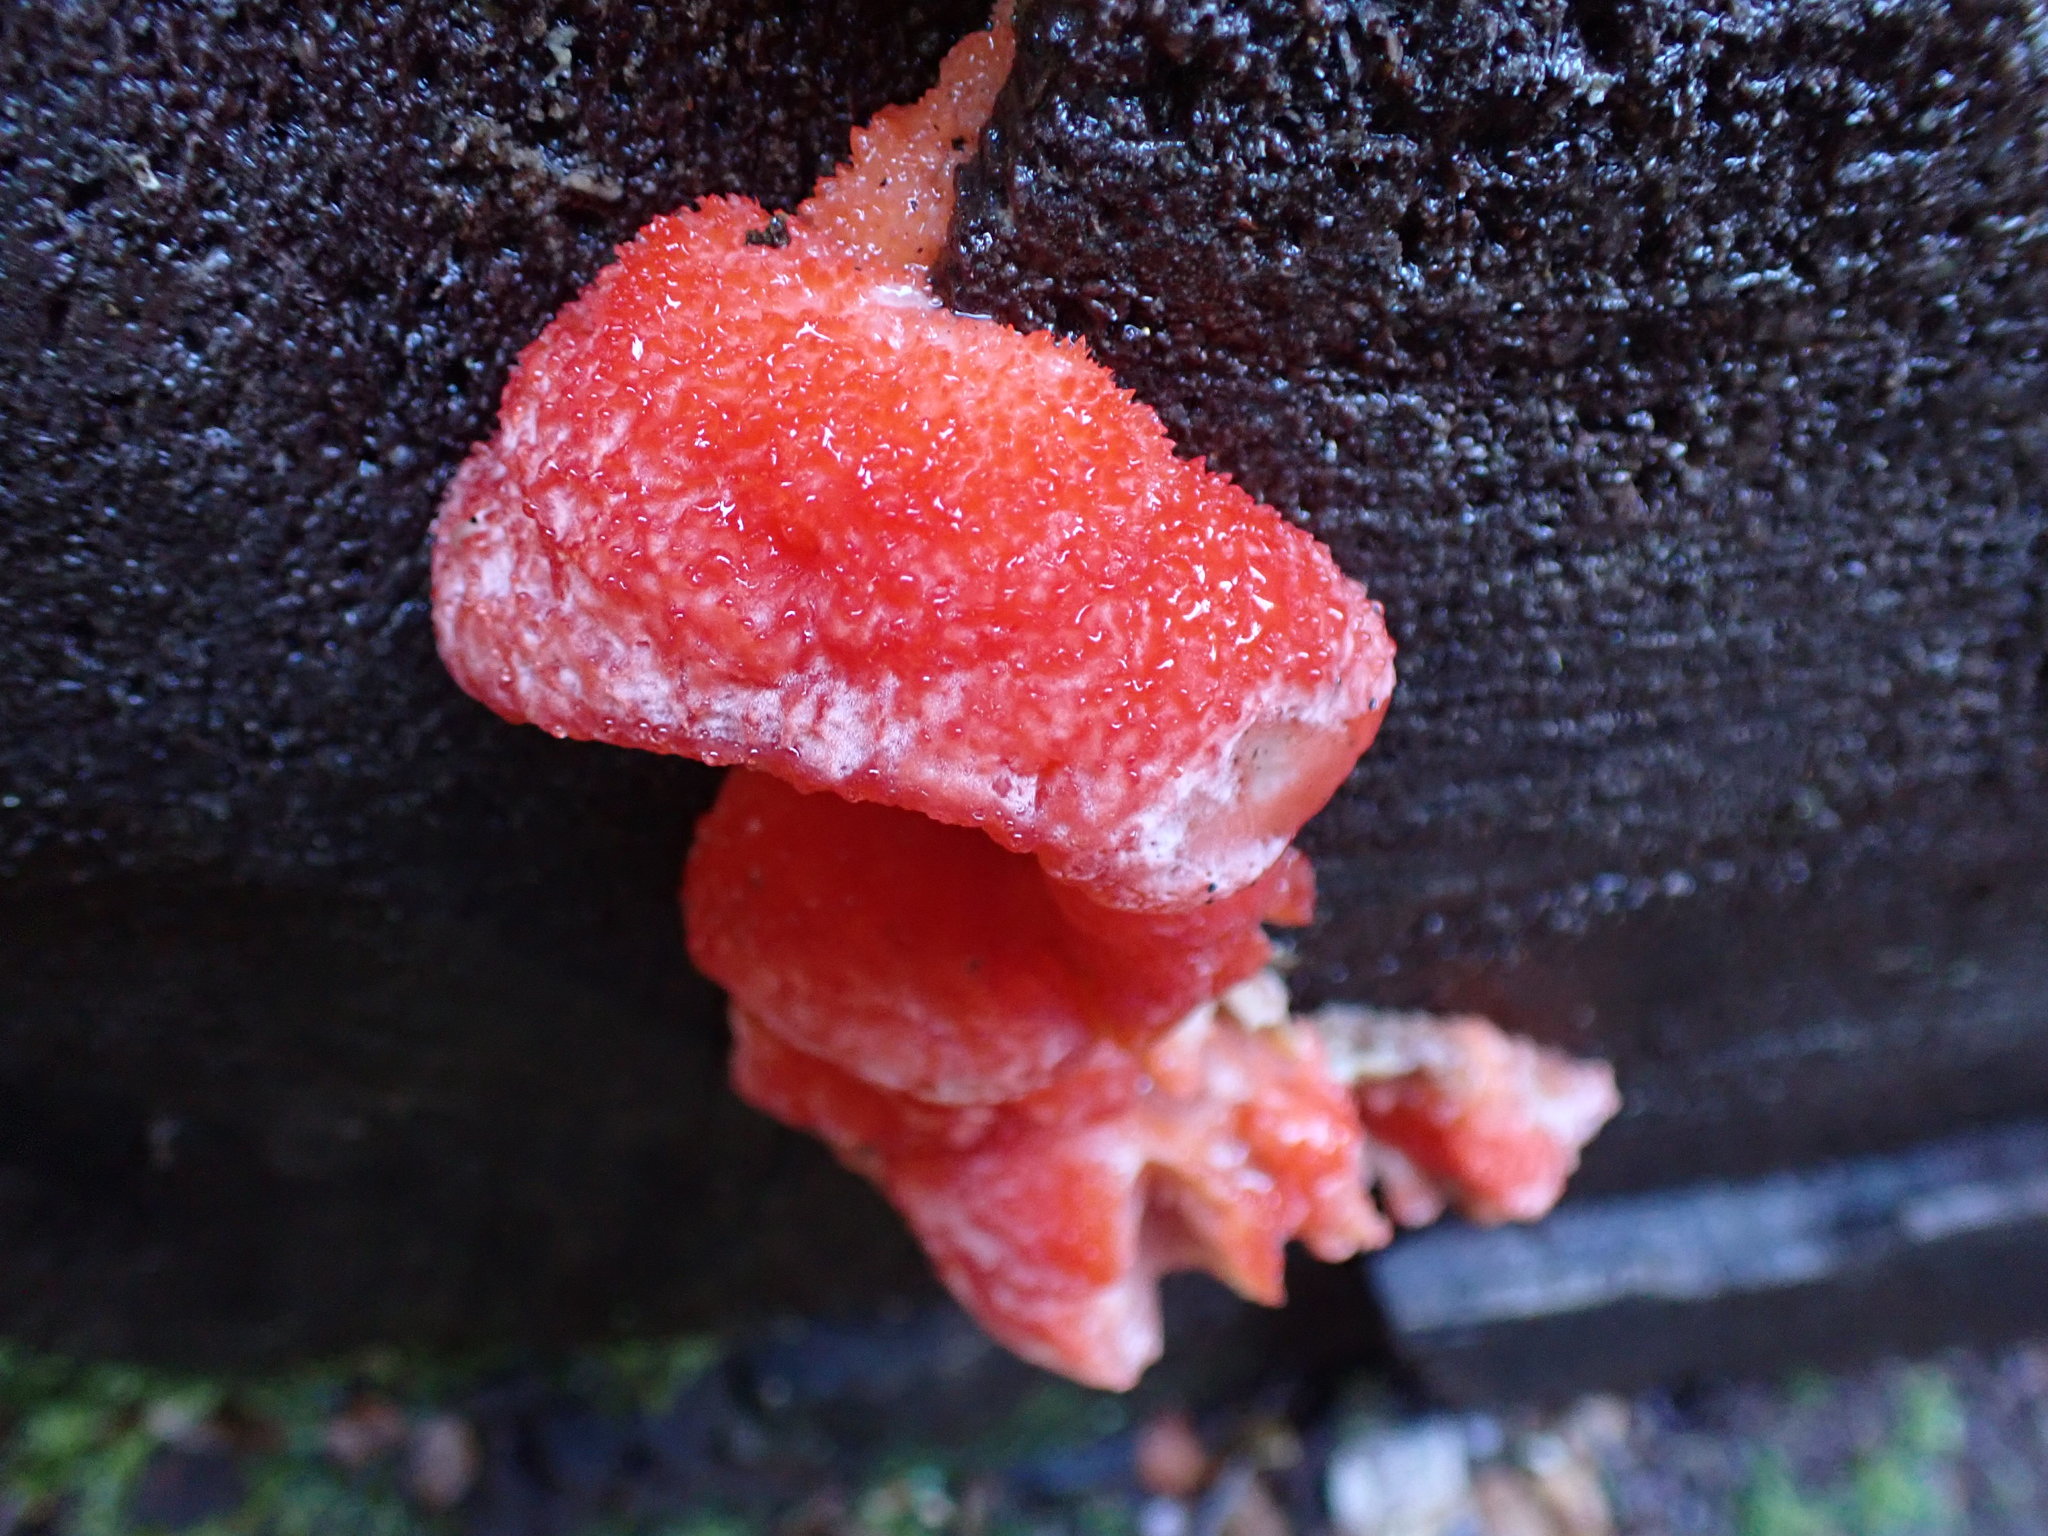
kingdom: Fungi
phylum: Basidiomycota
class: Agaricomycetes
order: Polyporales
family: Incrustoporiaceae
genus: Tyromyces
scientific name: Tyromyces pulcherrimus
